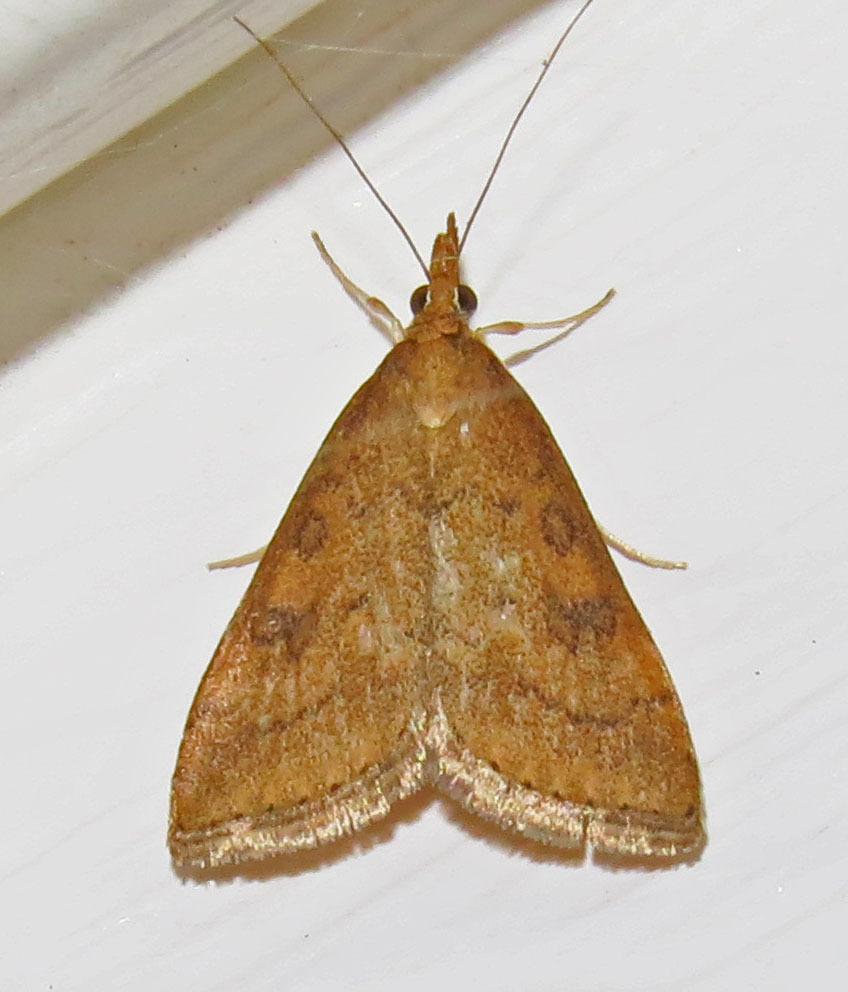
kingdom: Animalia
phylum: Arthropoda
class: Insecta
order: Lepidoptera
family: Crambidae
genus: Udea
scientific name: Udea rubigalis
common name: Celery leaftier moth
